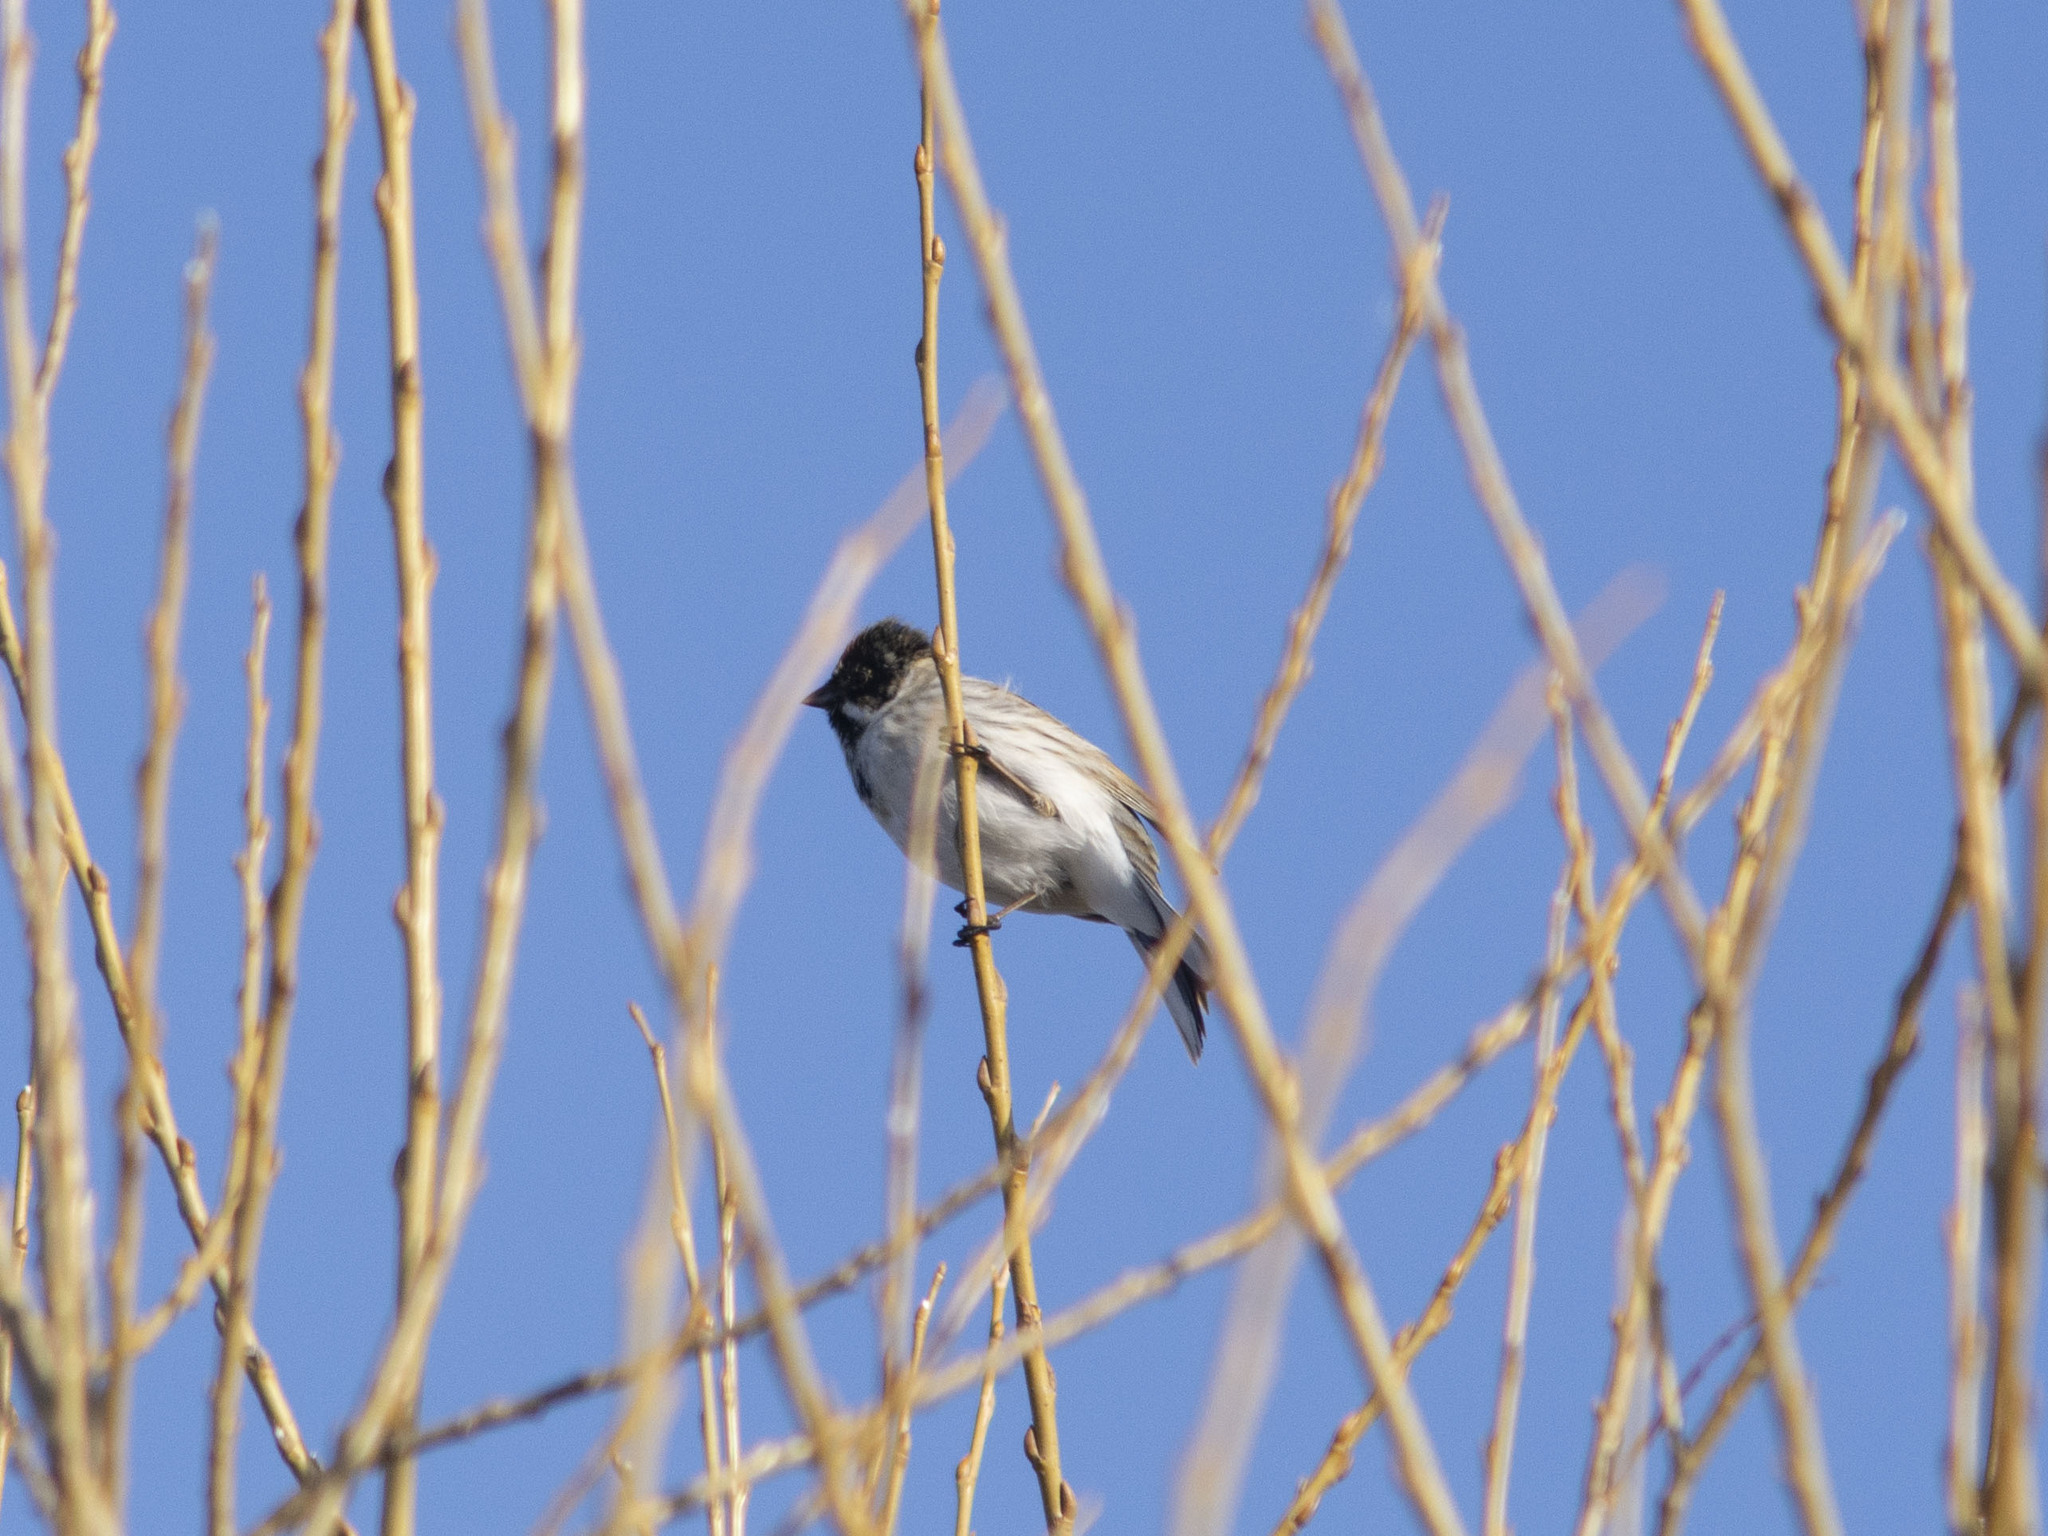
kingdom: Animalia
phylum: Chordata
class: Aves
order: Passeriformes
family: Emberizidae
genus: Emberiza
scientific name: Emberiza schoeniclus
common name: Reed bunting
